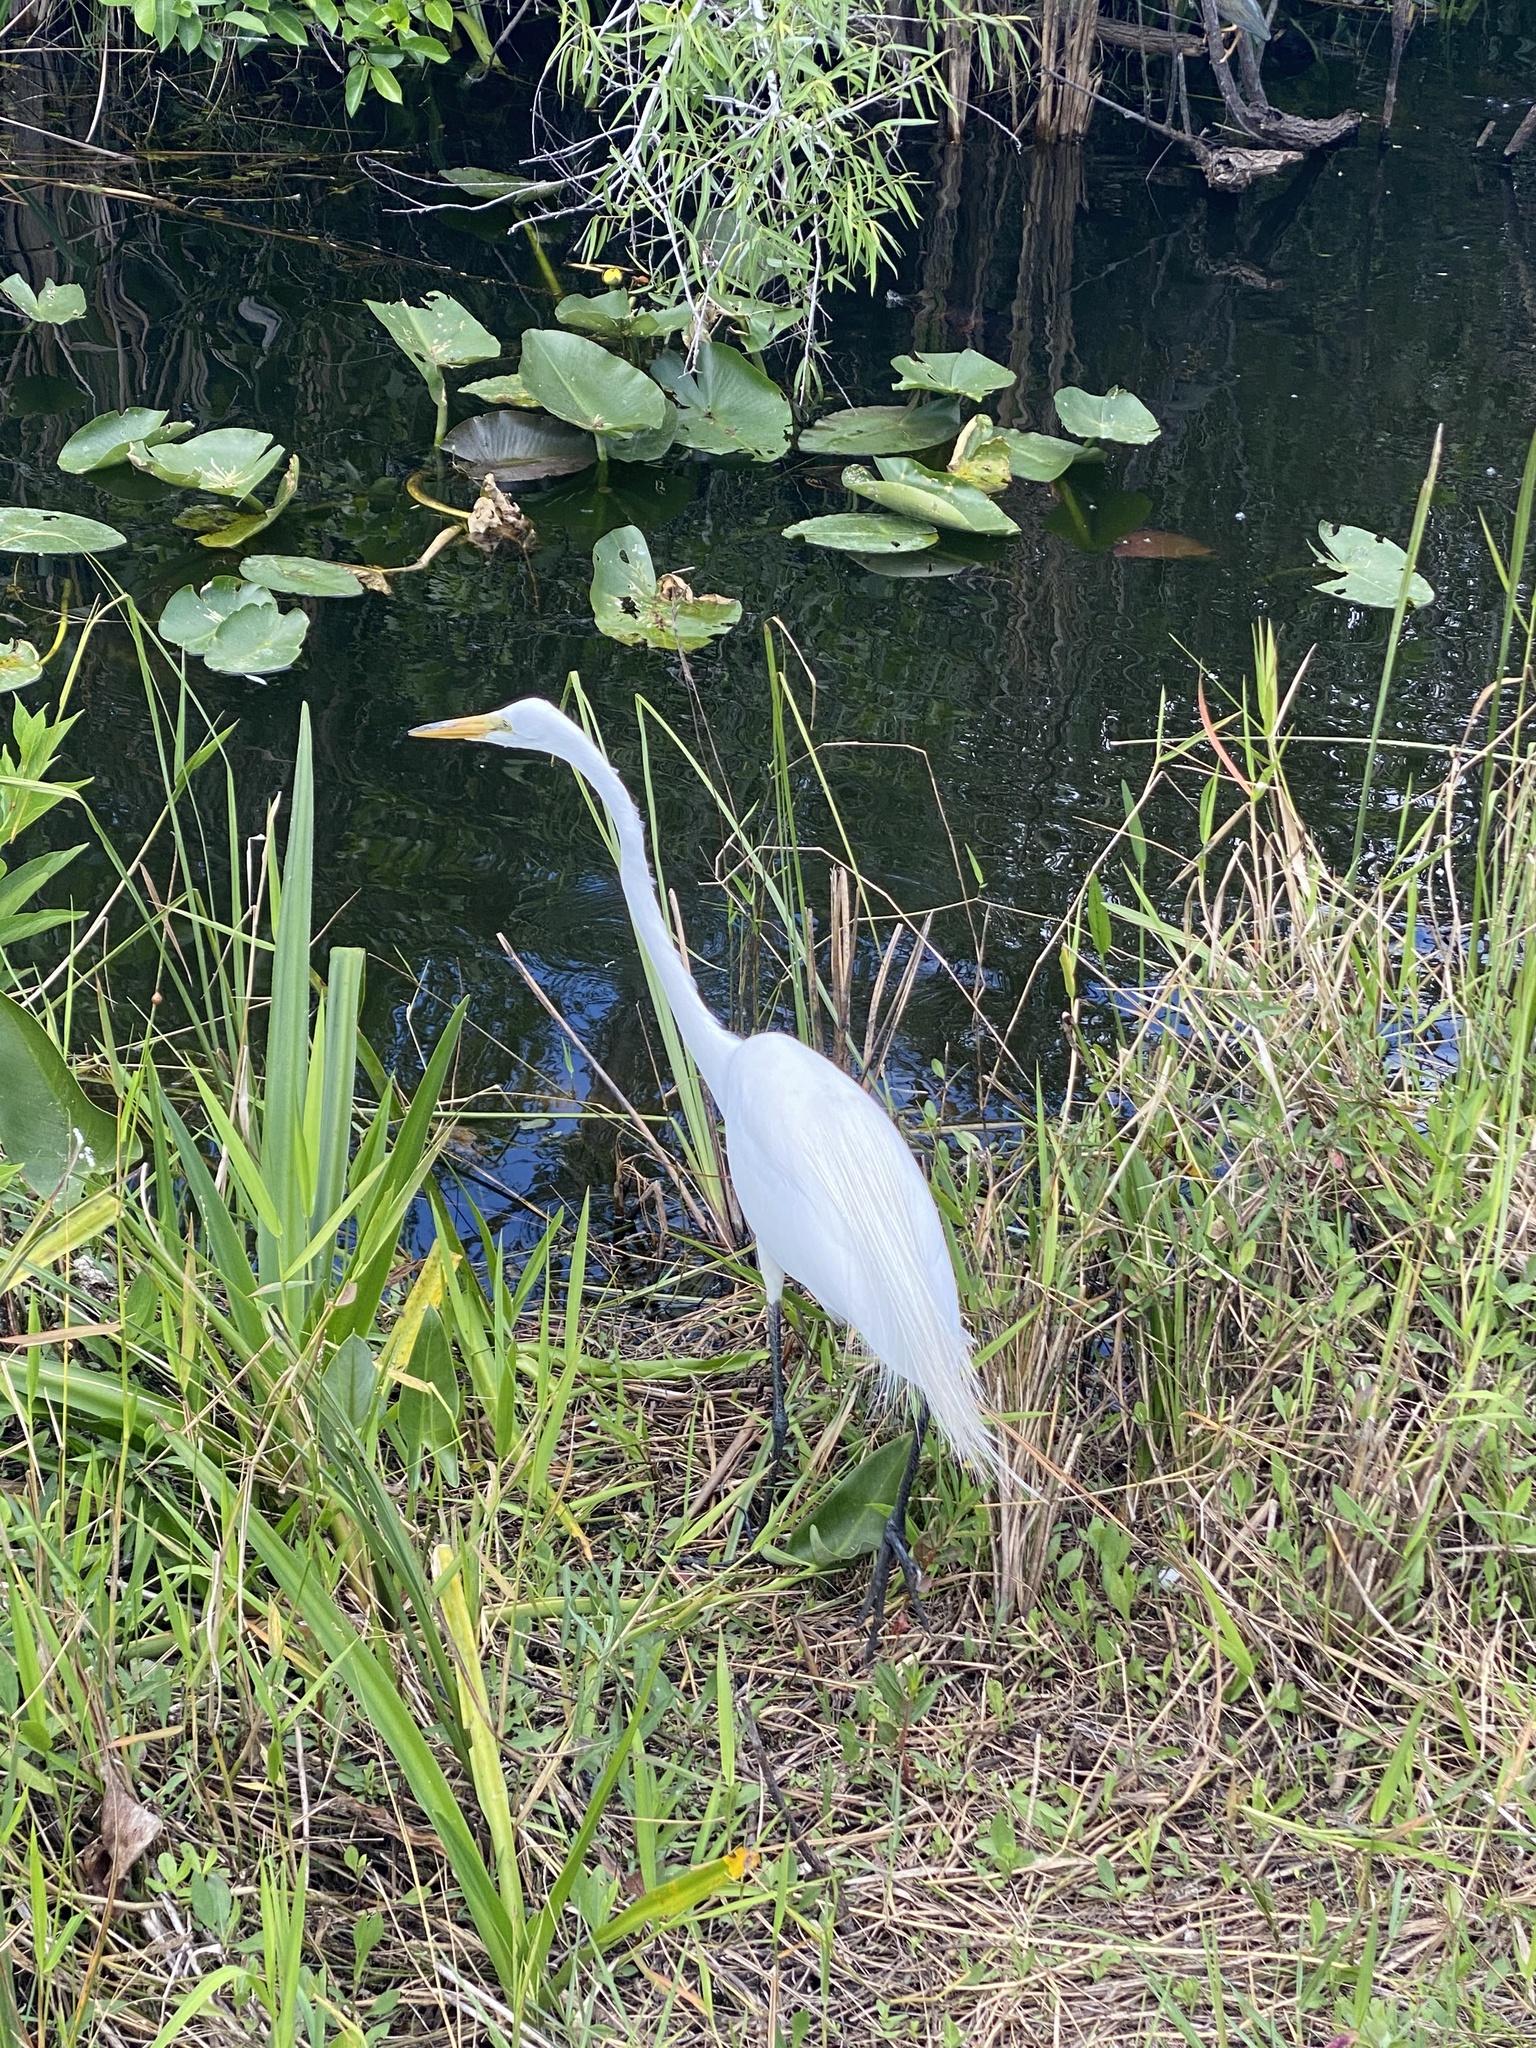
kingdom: Animalia
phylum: Chordata
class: Aves
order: Pelecaniformes
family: Ardeidae
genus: Ardea
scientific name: Ardea alba
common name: Great egret
